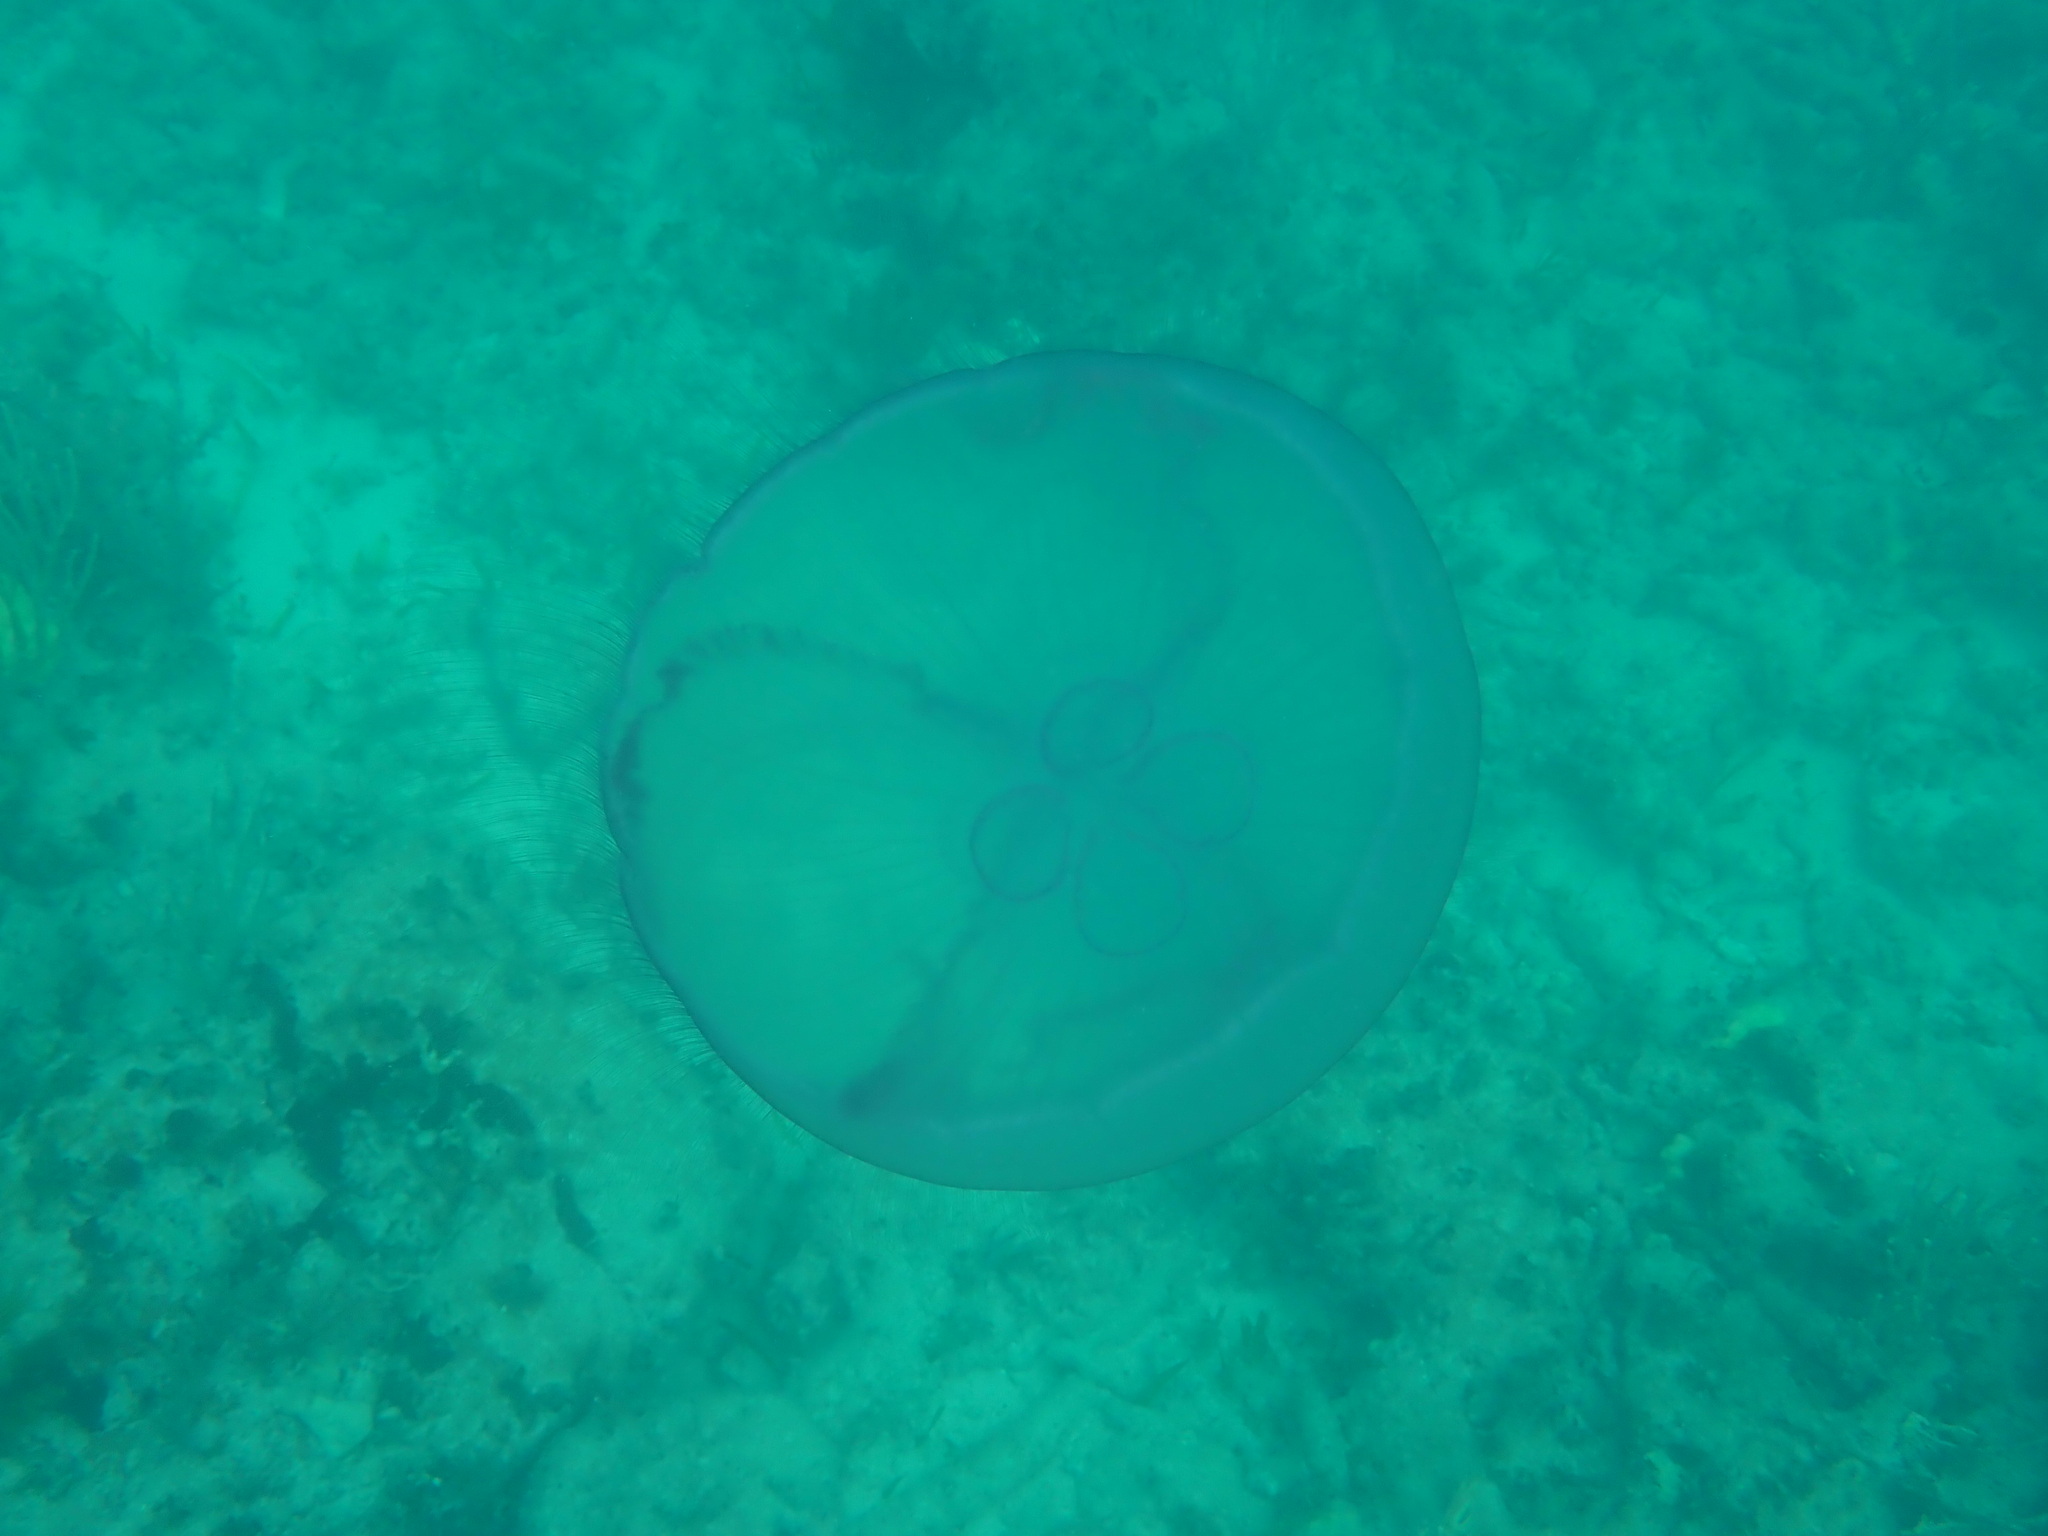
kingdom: Animalia
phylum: Cnidaria
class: Scyphozoa
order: Semaeostomeae
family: Ulmaridae
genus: Aurelia
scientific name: Aurelia marginalis
